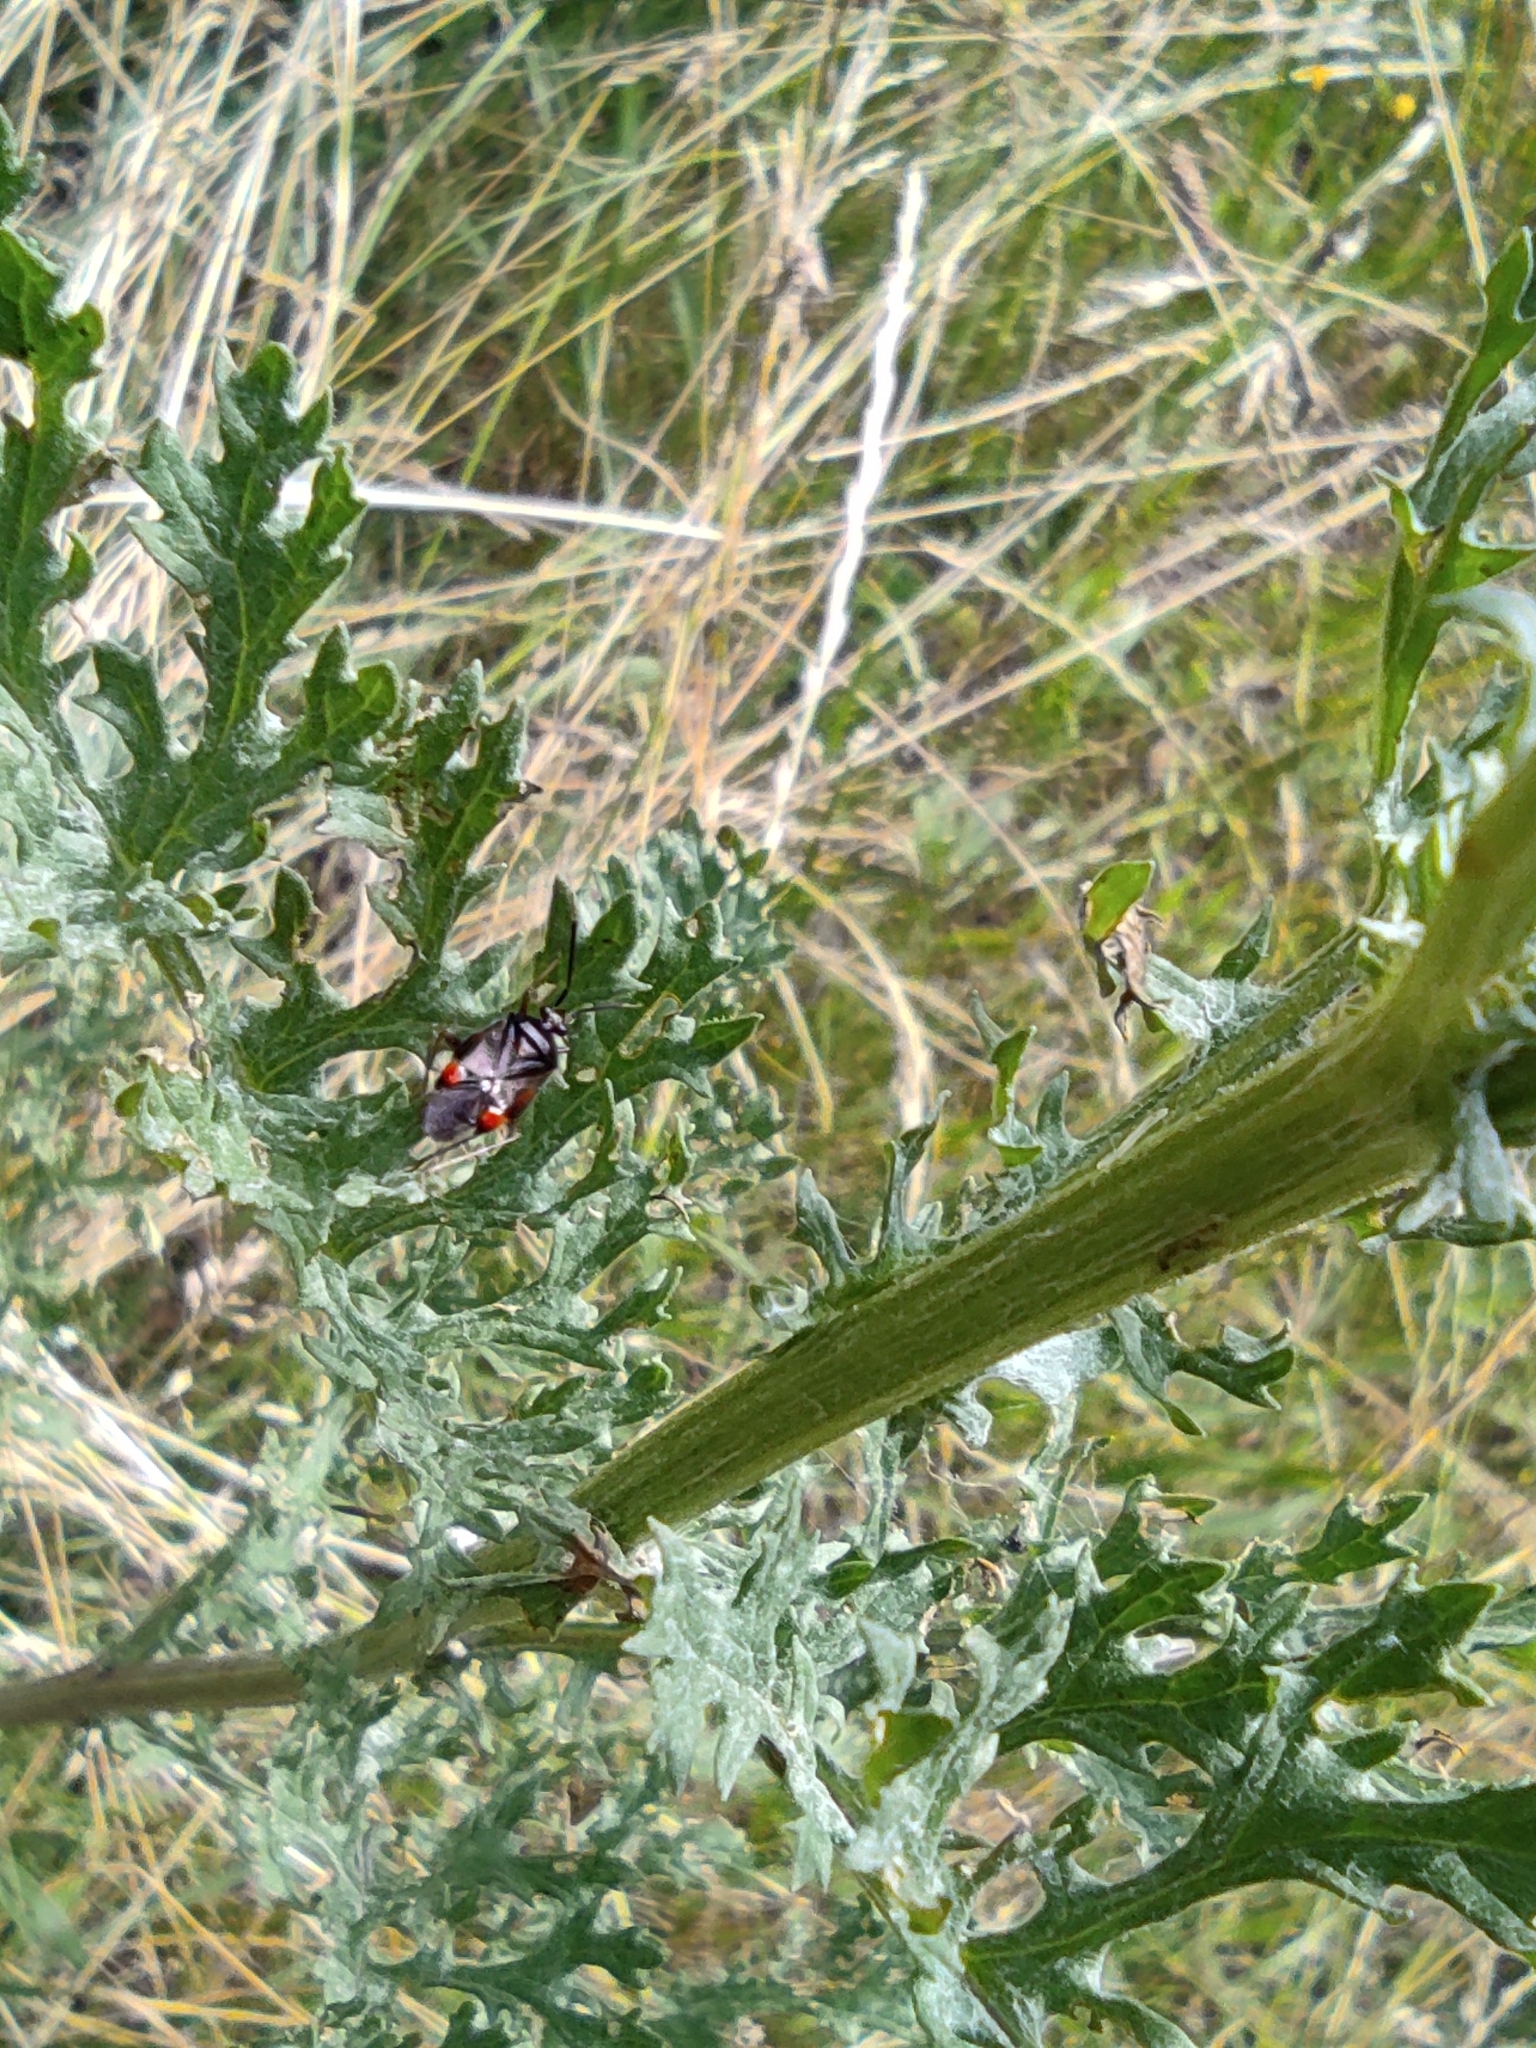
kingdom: Animalia
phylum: Arthropoda
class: Insecta
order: Hemiptera
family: Miridae
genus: Deraeocoris
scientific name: Deraeocoris ruber
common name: Plant bug
